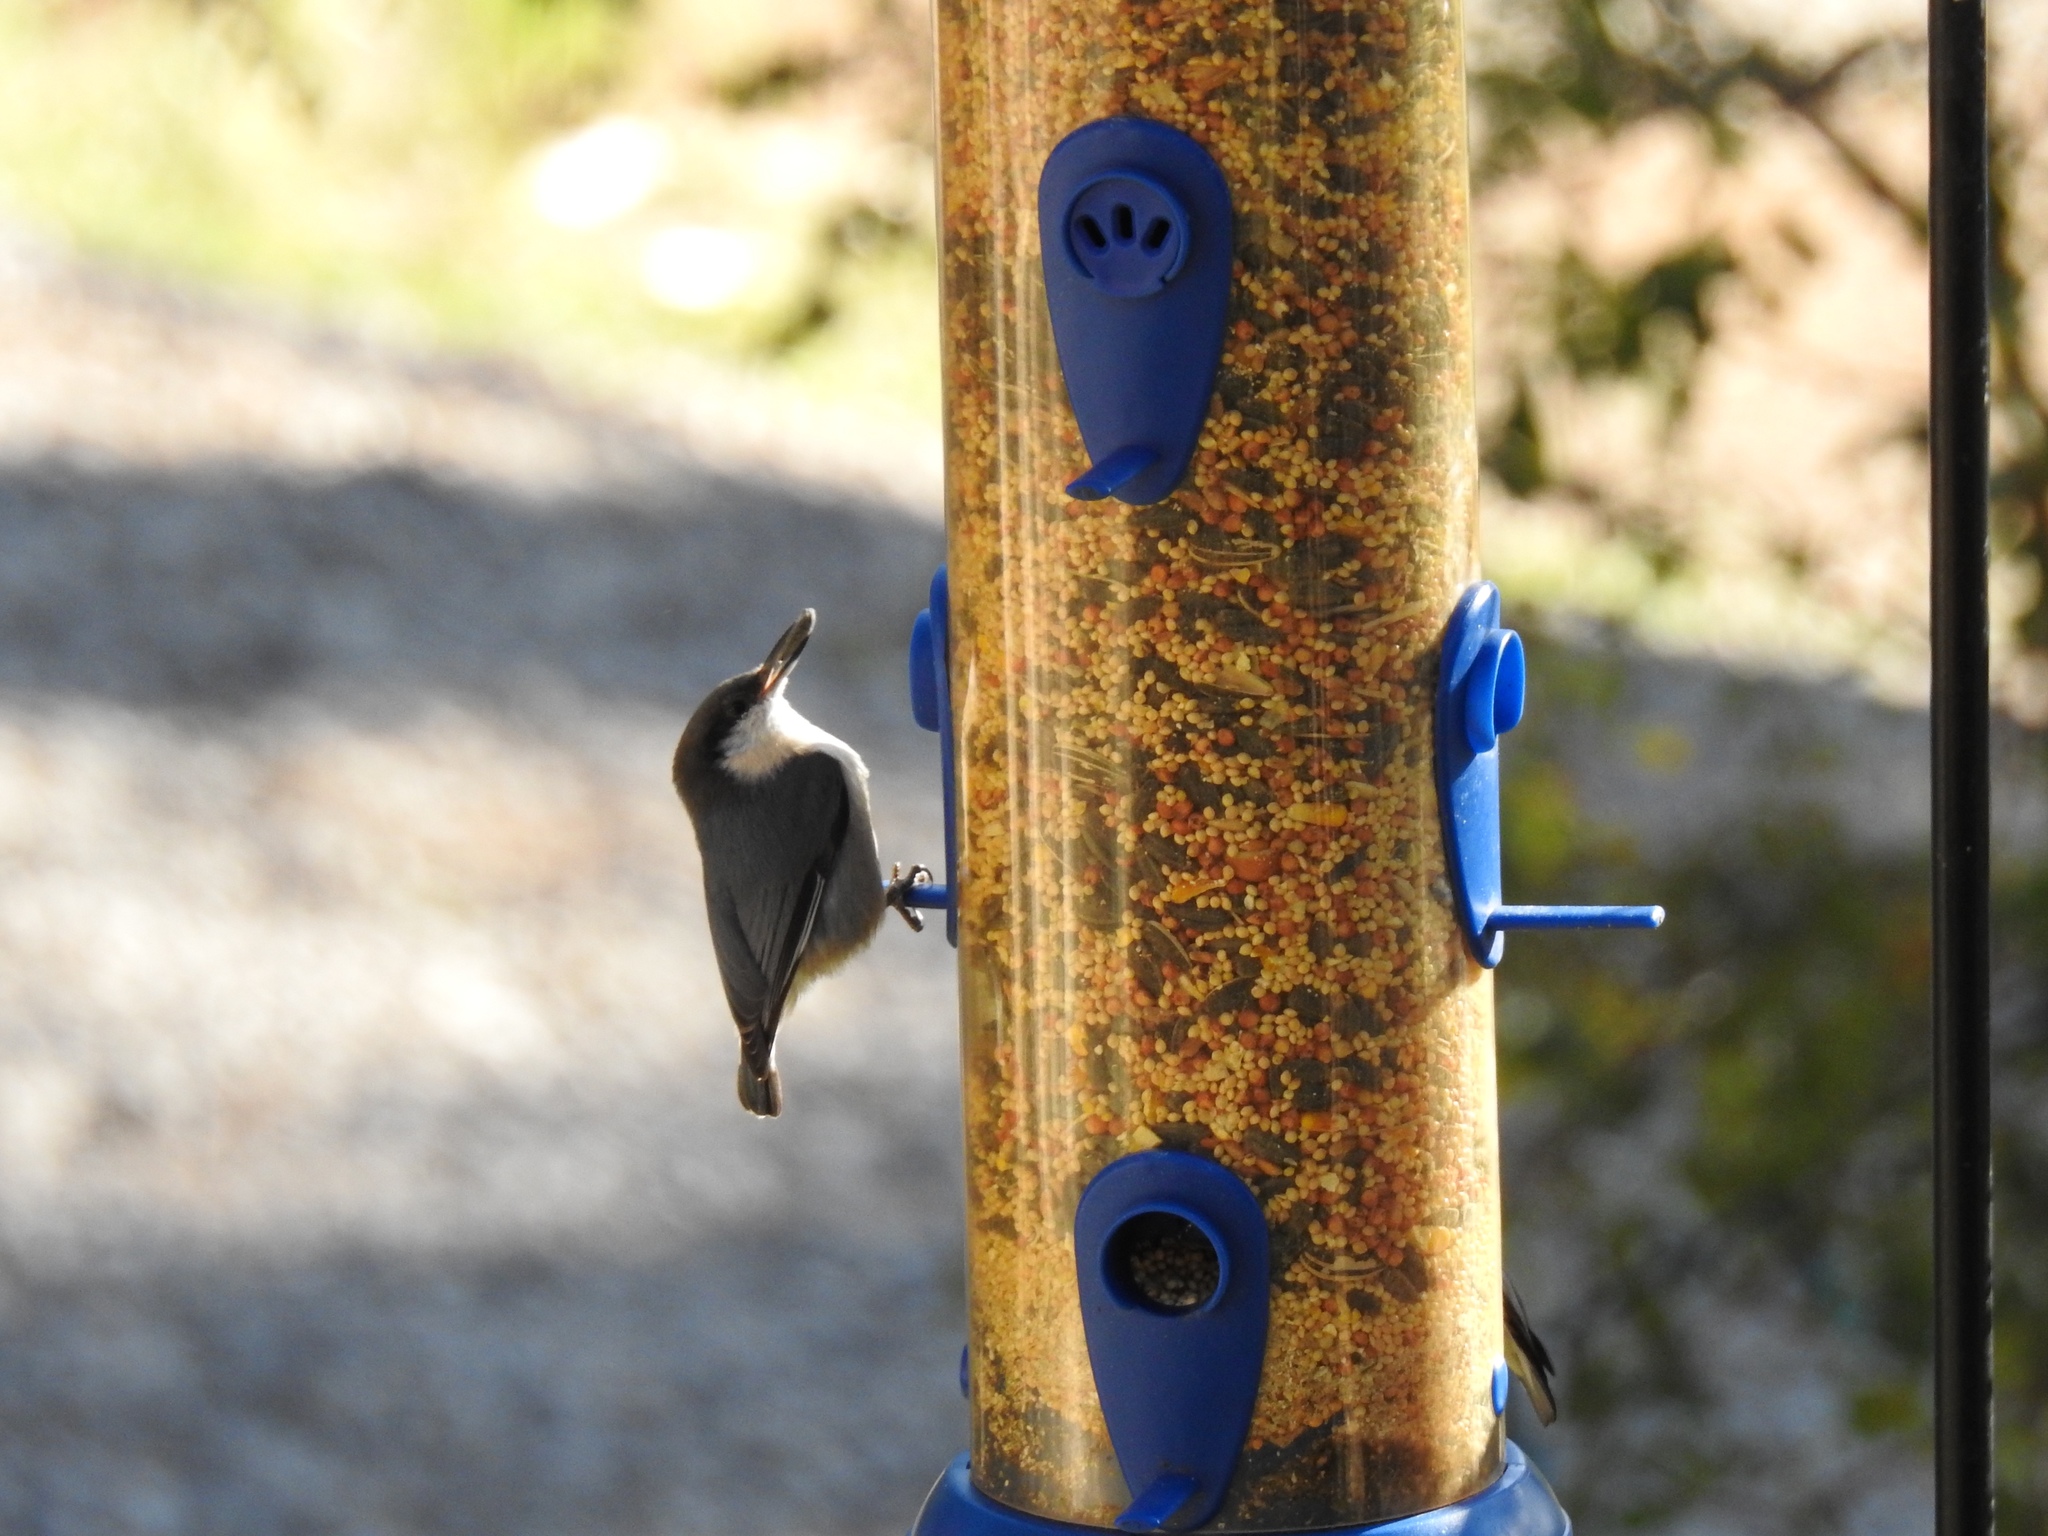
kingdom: Animalia
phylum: Chordata
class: Aves
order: Passeriformes
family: Sittidae
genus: Sitta
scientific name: Sitta pygmaea
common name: Pygmy nuthatch
